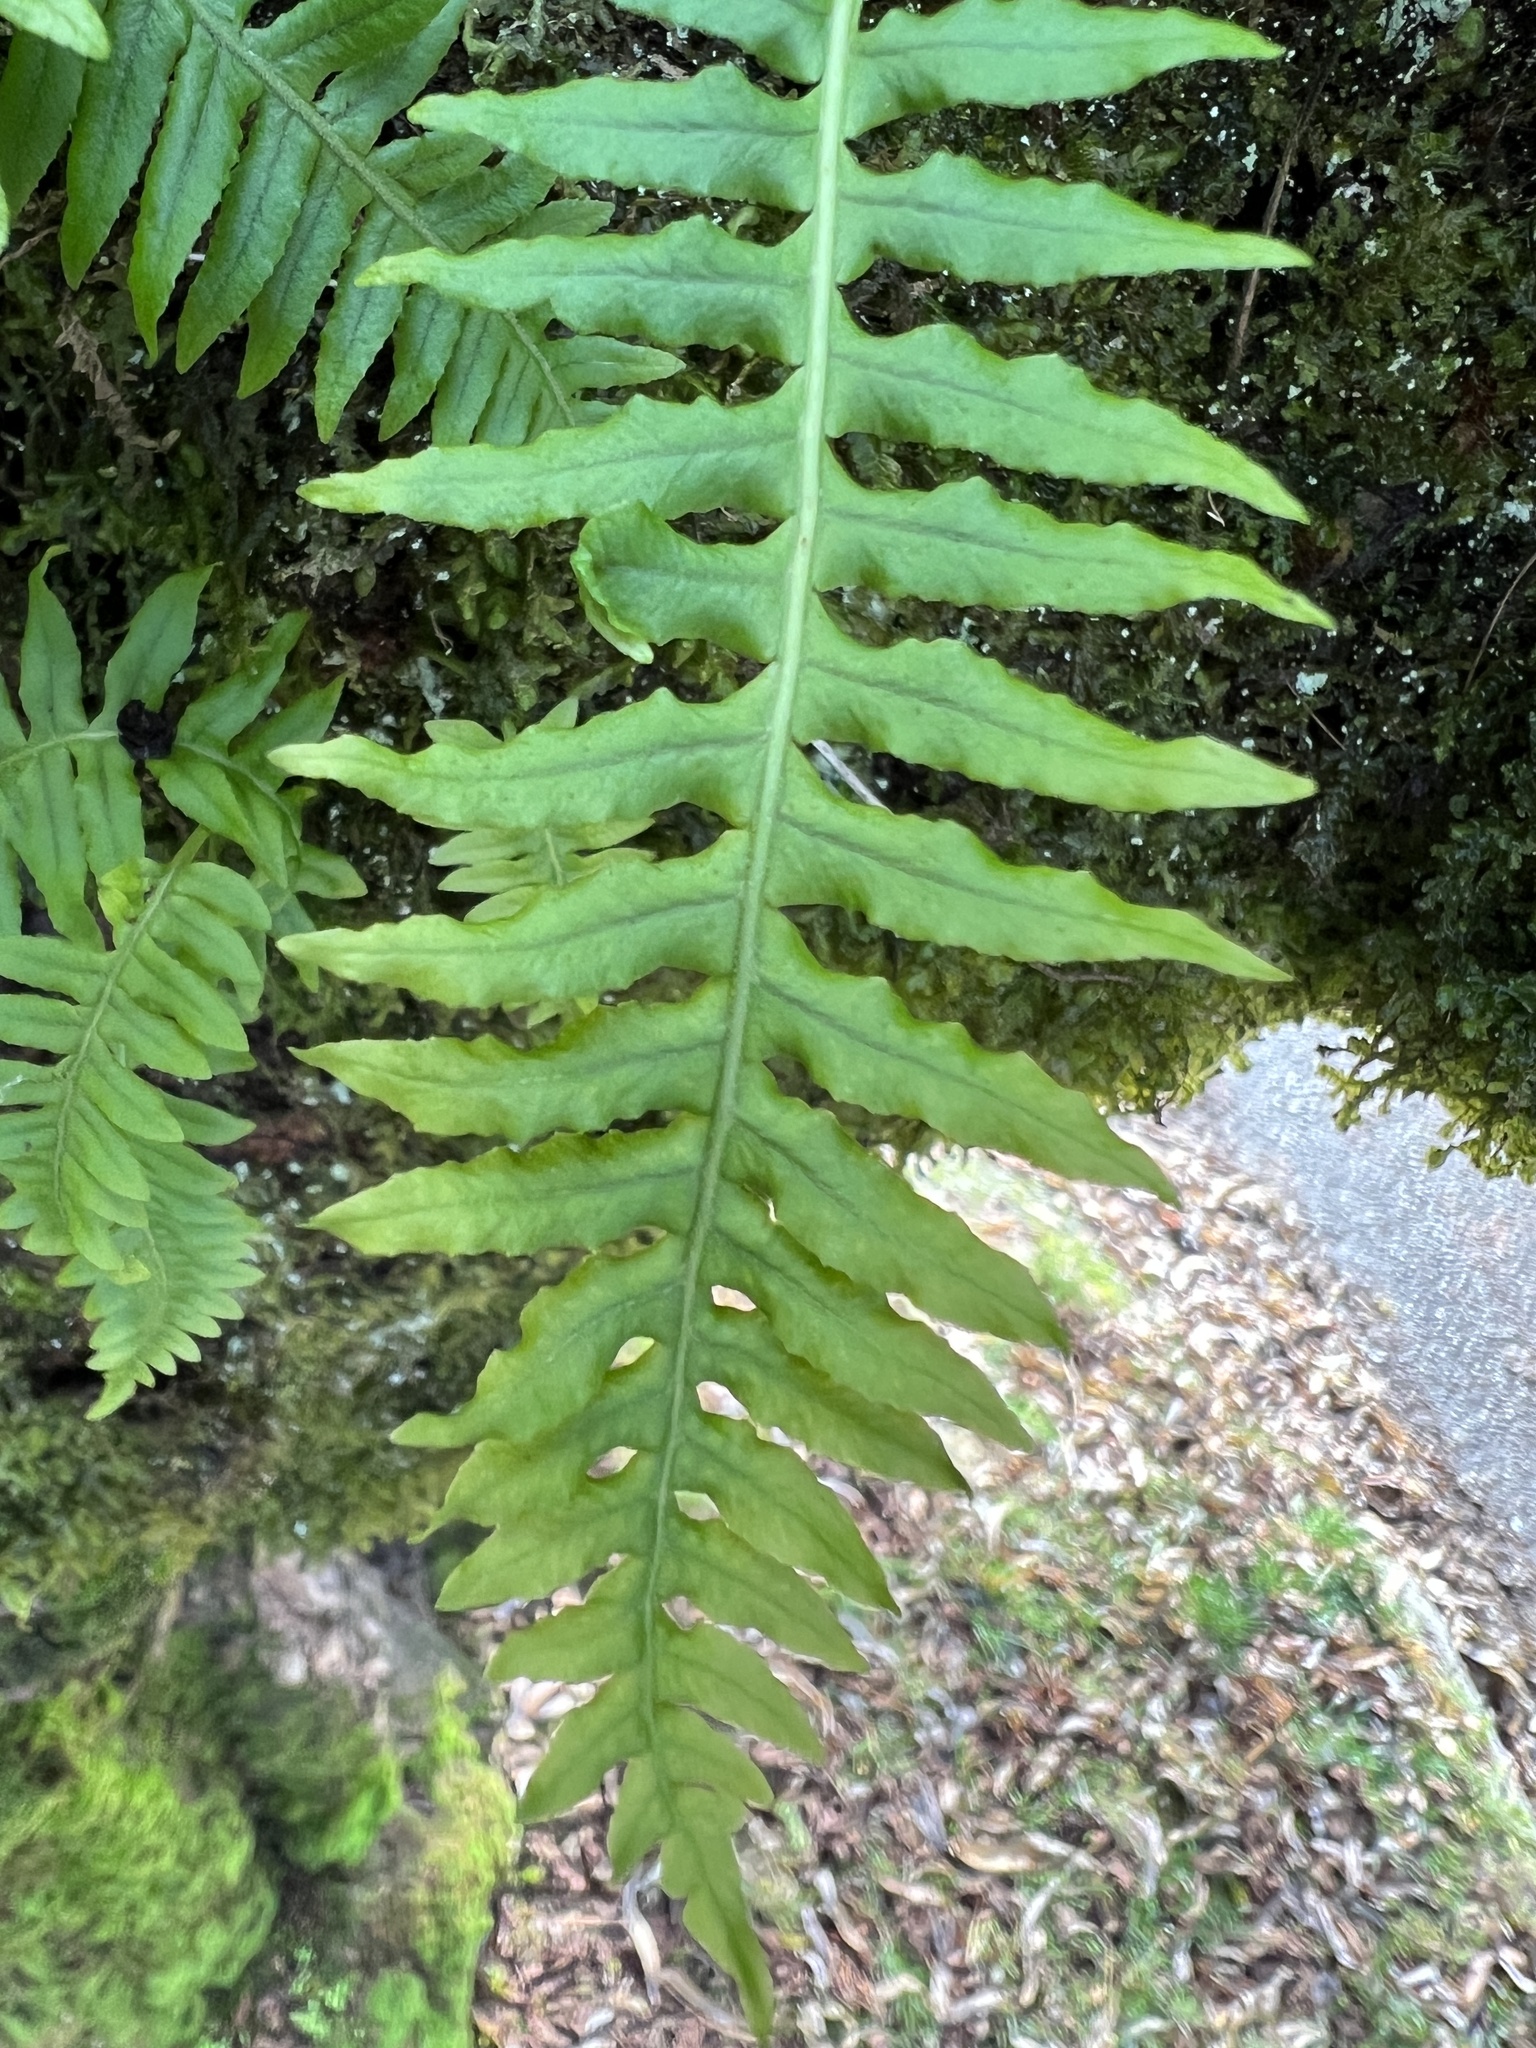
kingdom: Plantae
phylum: Tracheophyta
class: Polypodiopsida
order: Polypodiales
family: Polypodiaceae
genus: Polypodium
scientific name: Polypodium glycyrrhiza
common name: Licorice fern
